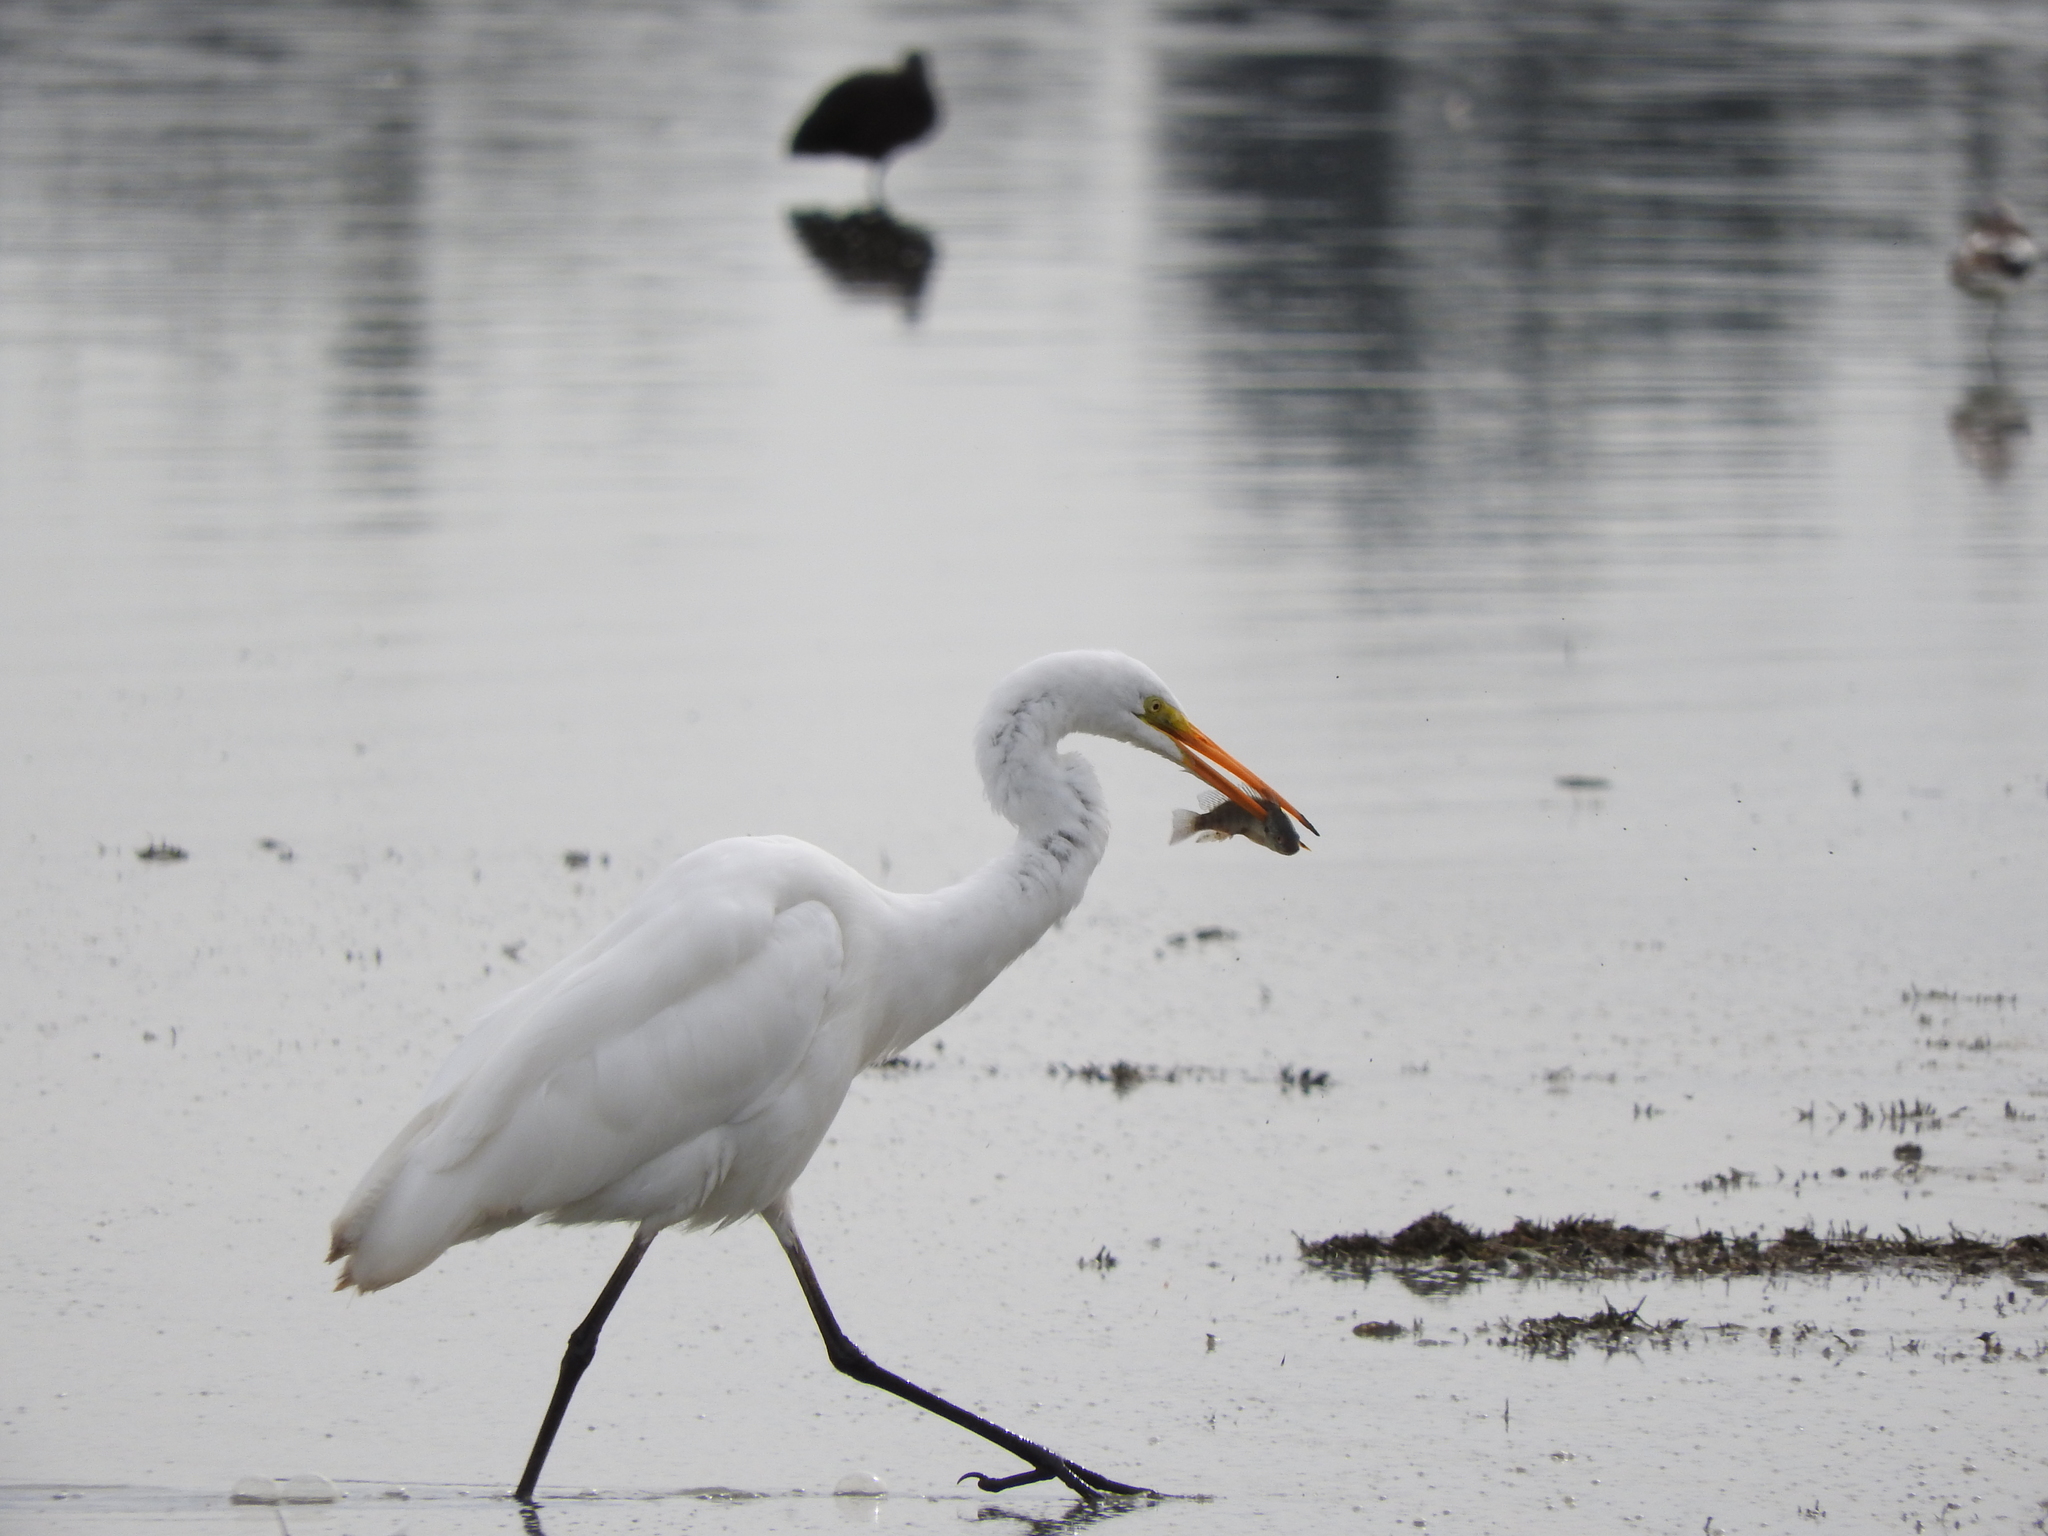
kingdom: Animalia
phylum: Chordata
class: Aves
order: Pelecaniformes
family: Ardeidae
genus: Ardea
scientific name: Ardea alba
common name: Great egret
